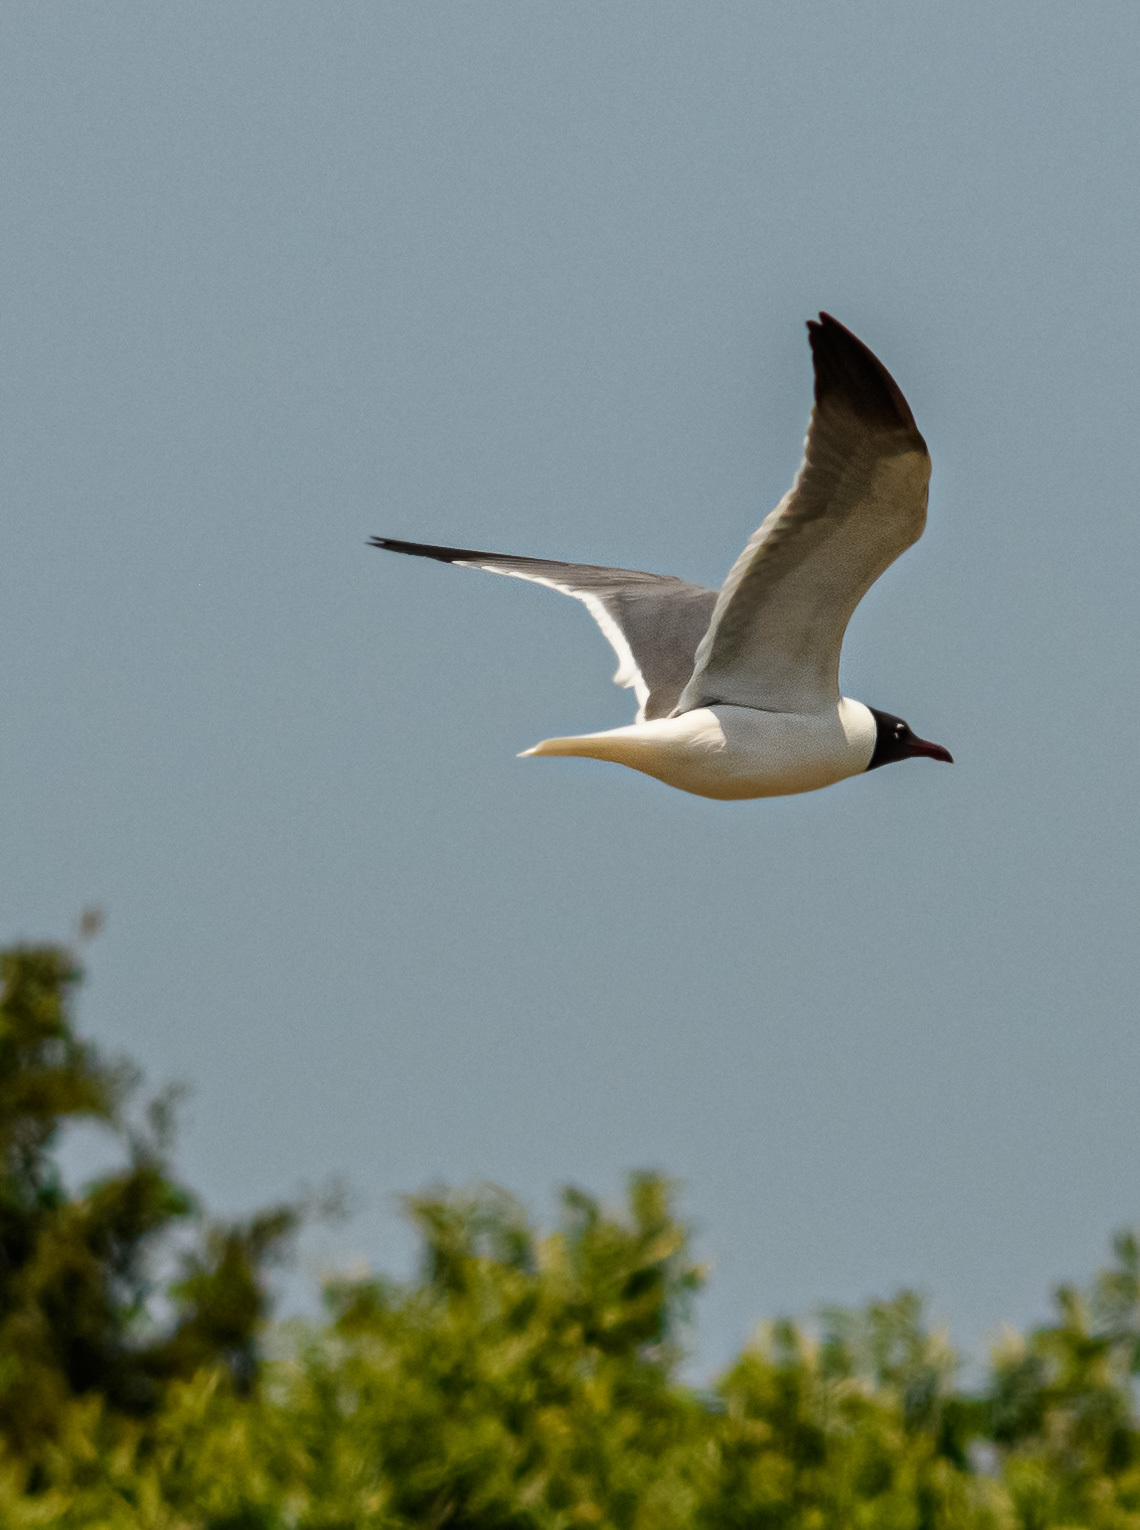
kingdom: Animalia
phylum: Chordata
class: Aves
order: Charadriiformes
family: Laridae
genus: Leucophaeus
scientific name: Leucophaeus atricilla
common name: Laughing gull
